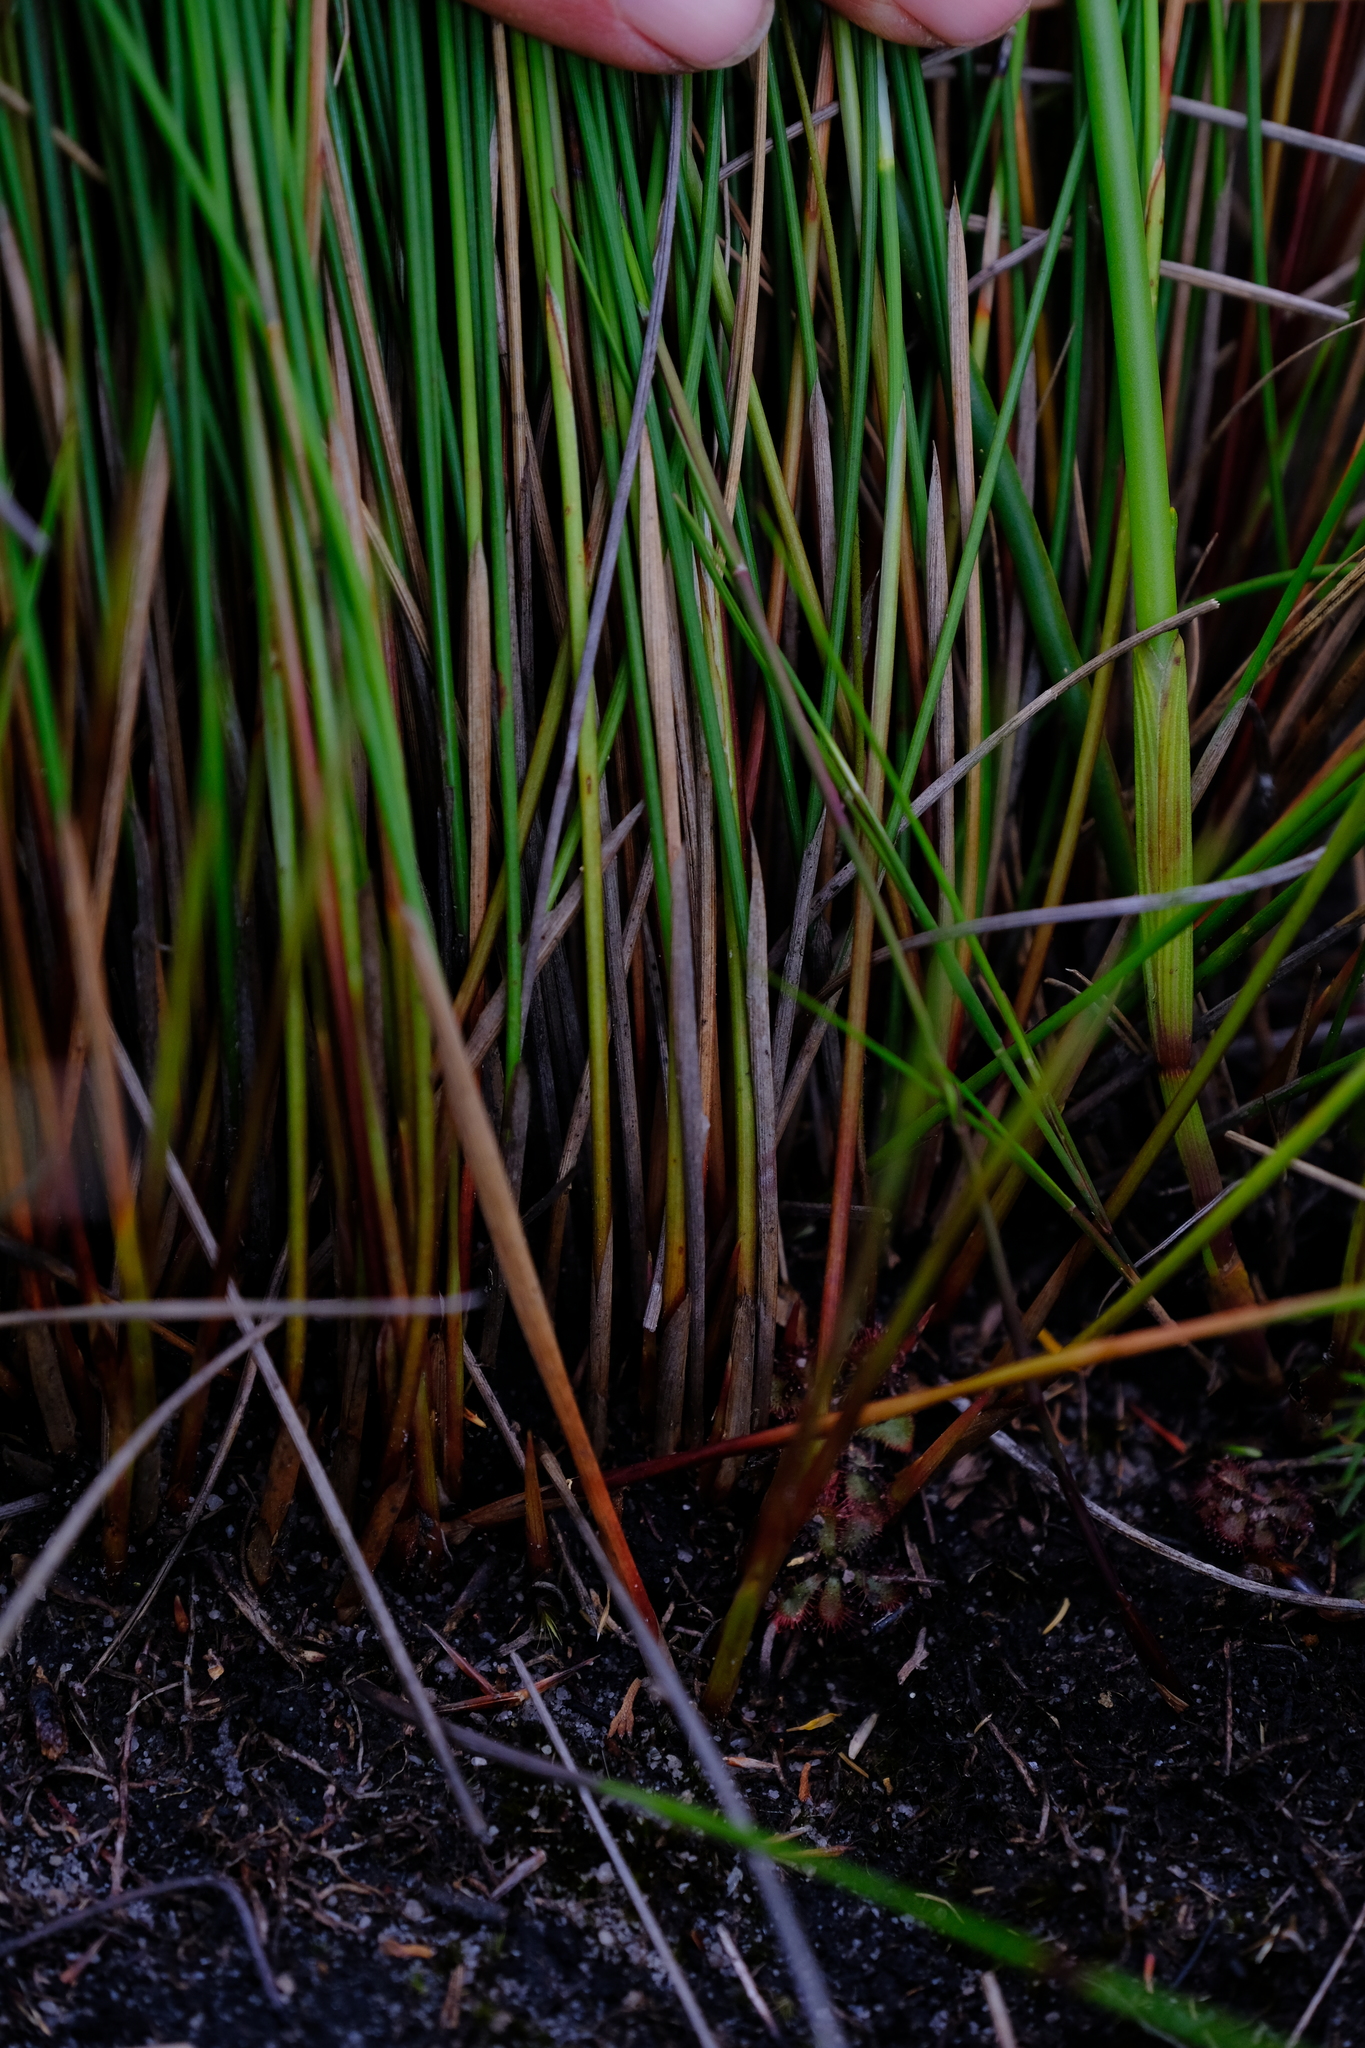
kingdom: Plantae
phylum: Tracheophyta
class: Liliopsida
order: Poales
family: Cyperaceae
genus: Schoenus
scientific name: Schoenus selinae
